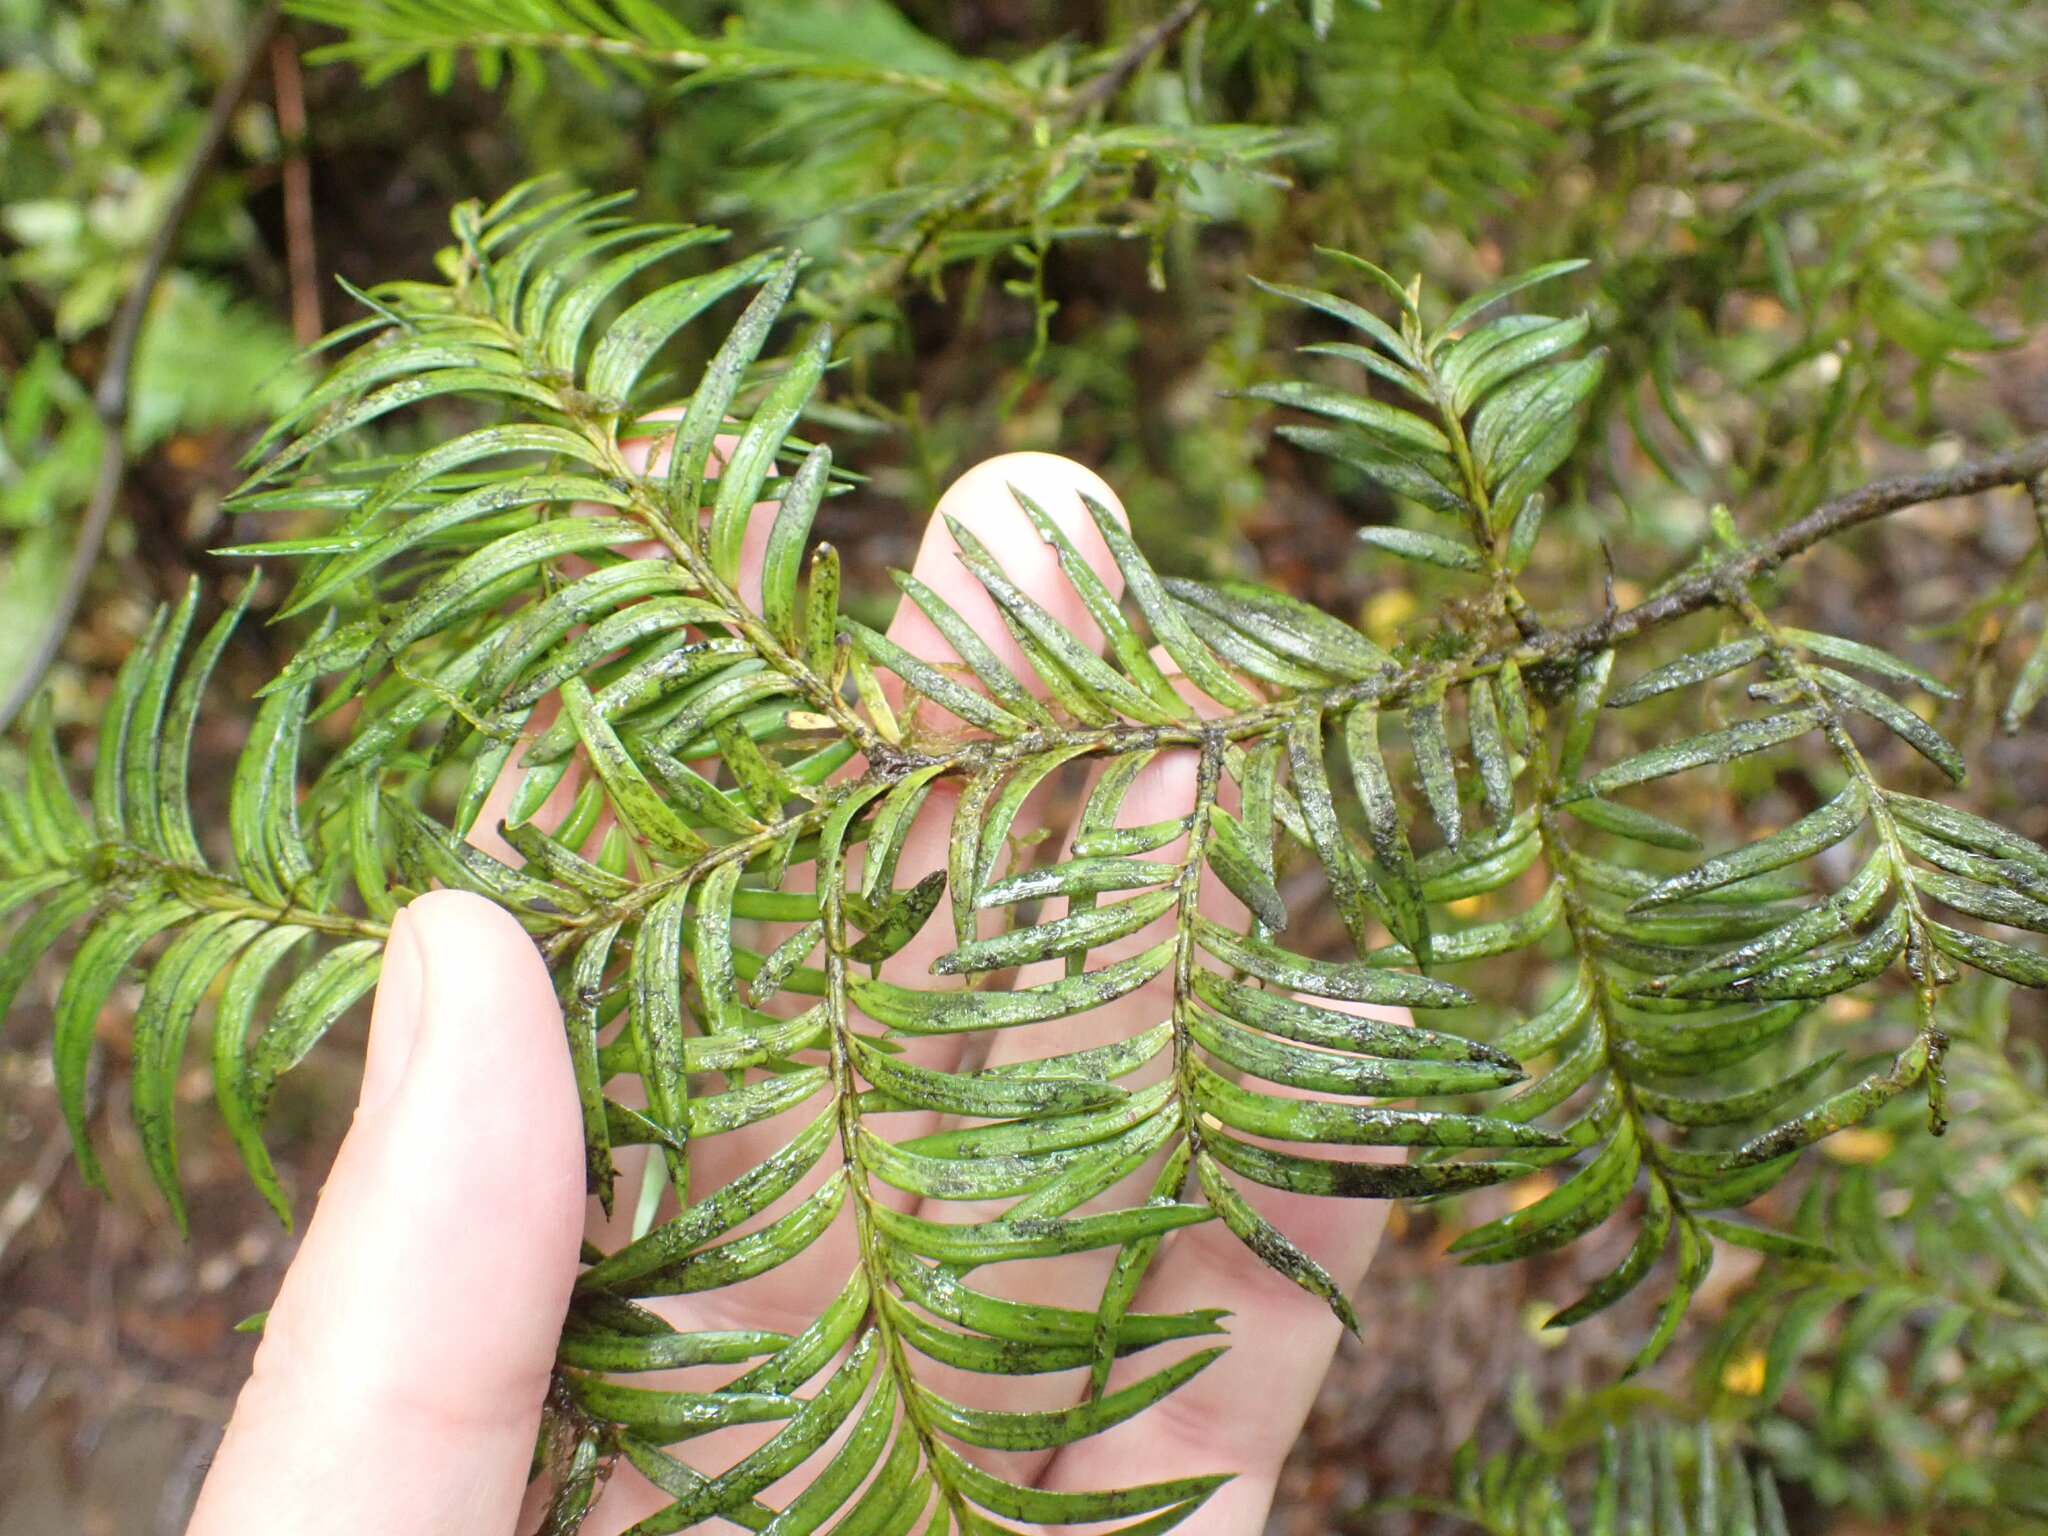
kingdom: Plantae
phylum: Tracheophyta
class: Pinopsida
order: Pinales
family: Podocarpaceae
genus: Prumnopitys
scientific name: Prumnopitys ferruginea
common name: Brown pine
